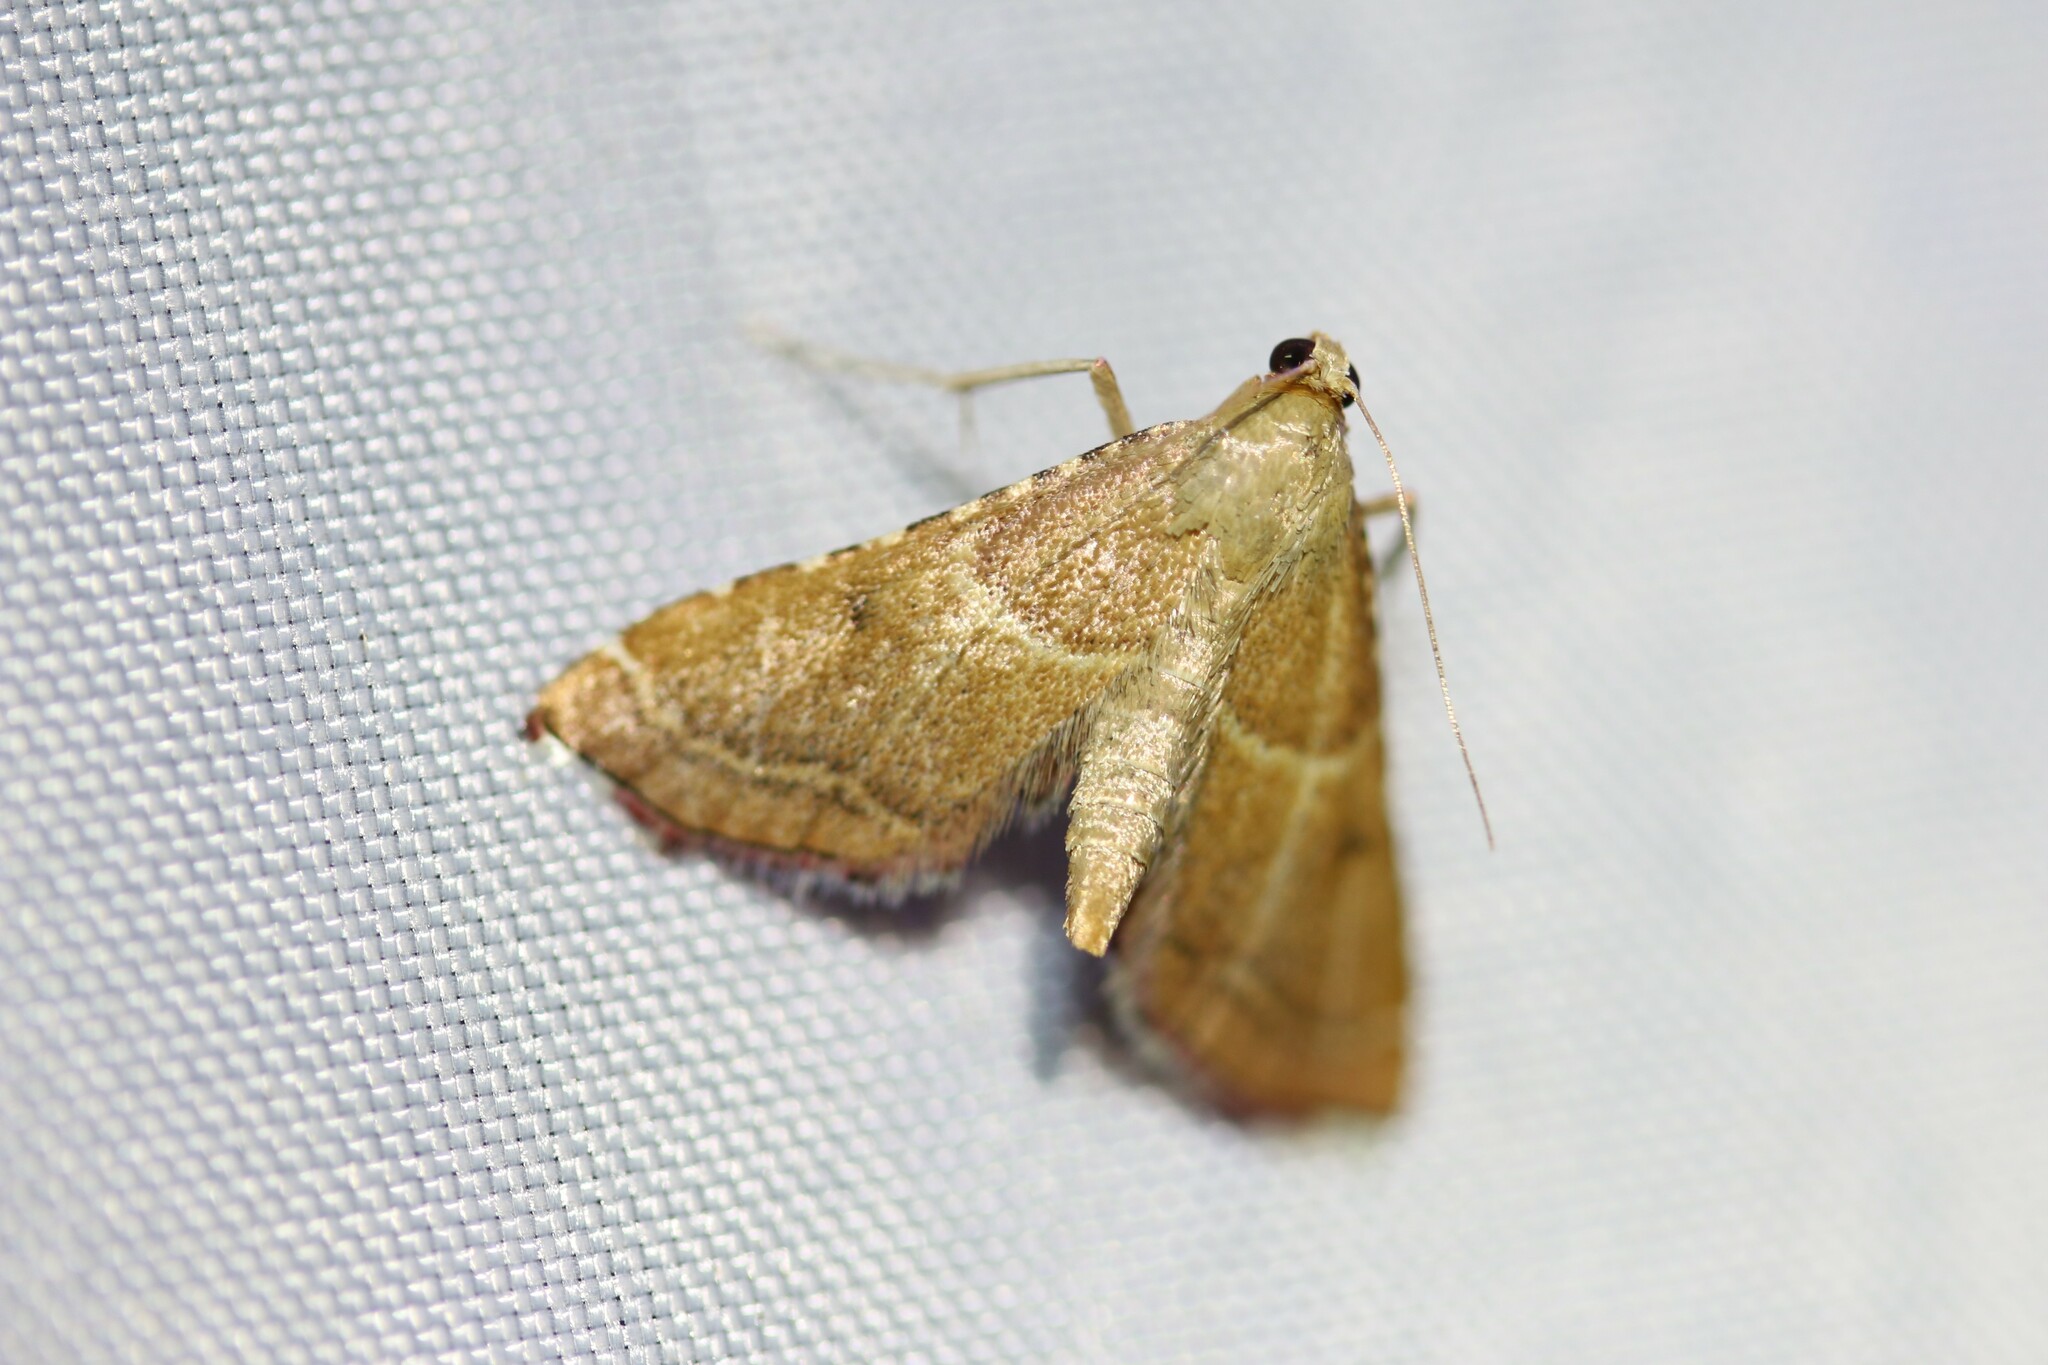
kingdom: Animalia
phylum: Arthropoda
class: Insecta
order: Lepidoptera
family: Pyralidae
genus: Endotricha
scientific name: Endotricha flammealis
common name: Rosy tabby
